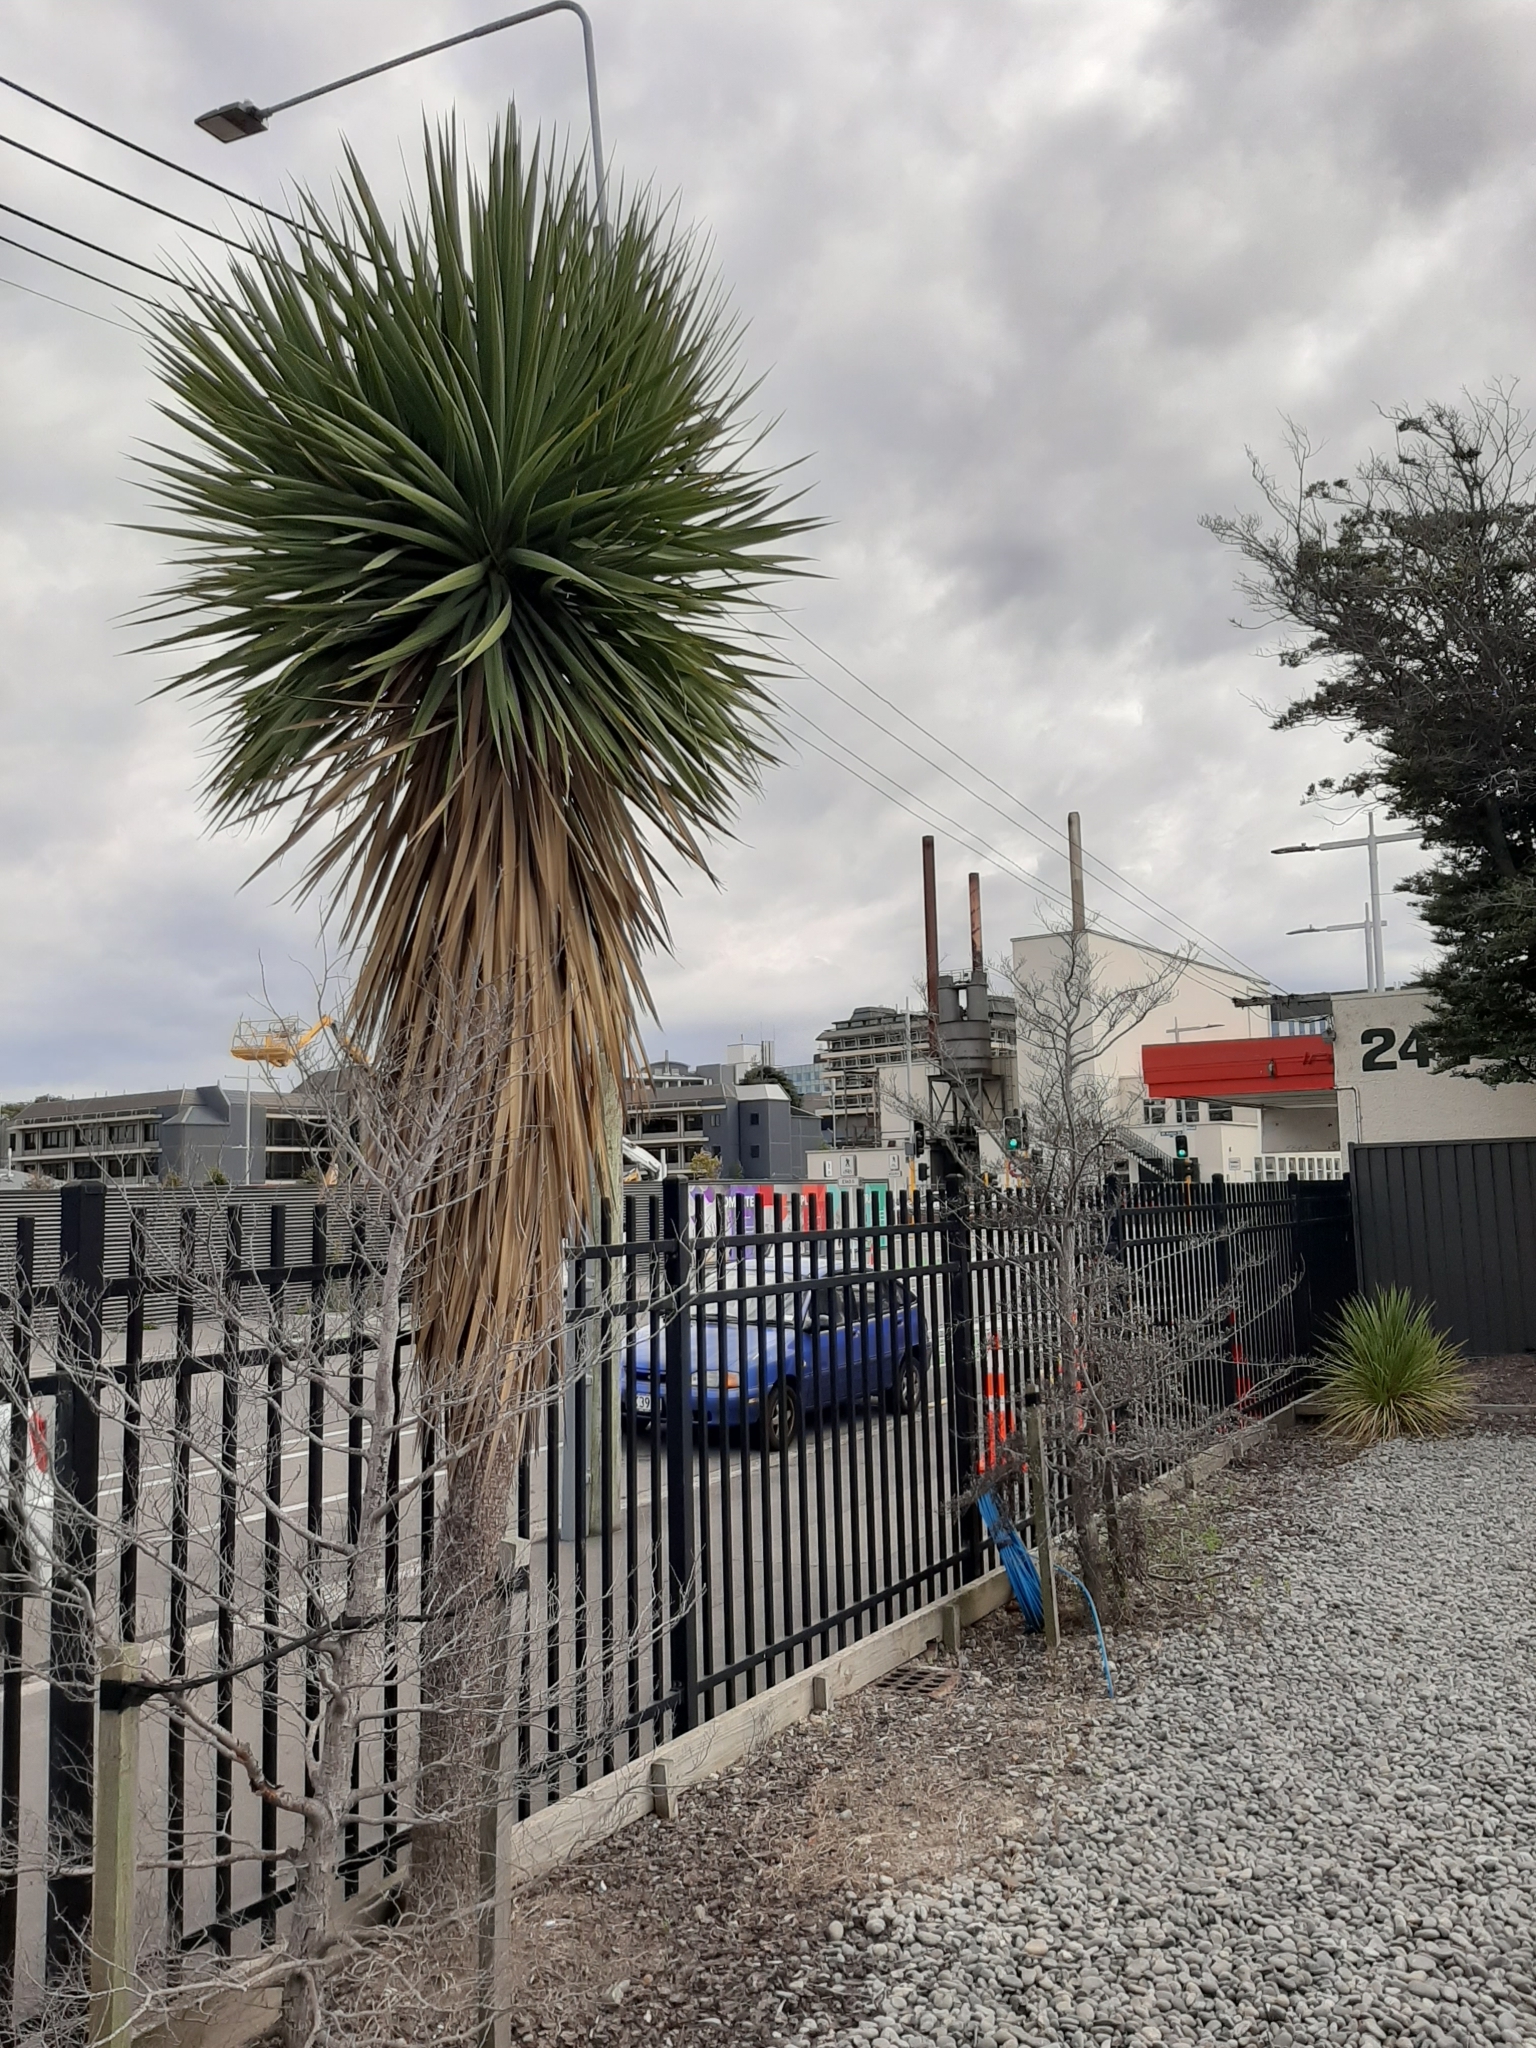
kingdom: Plantae
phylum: Tracheophyta
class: Liliopsida
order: Asparagales
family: Asparagaceae
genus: Cordyline
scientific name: Cordyline australis
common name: Cabbage-palm
